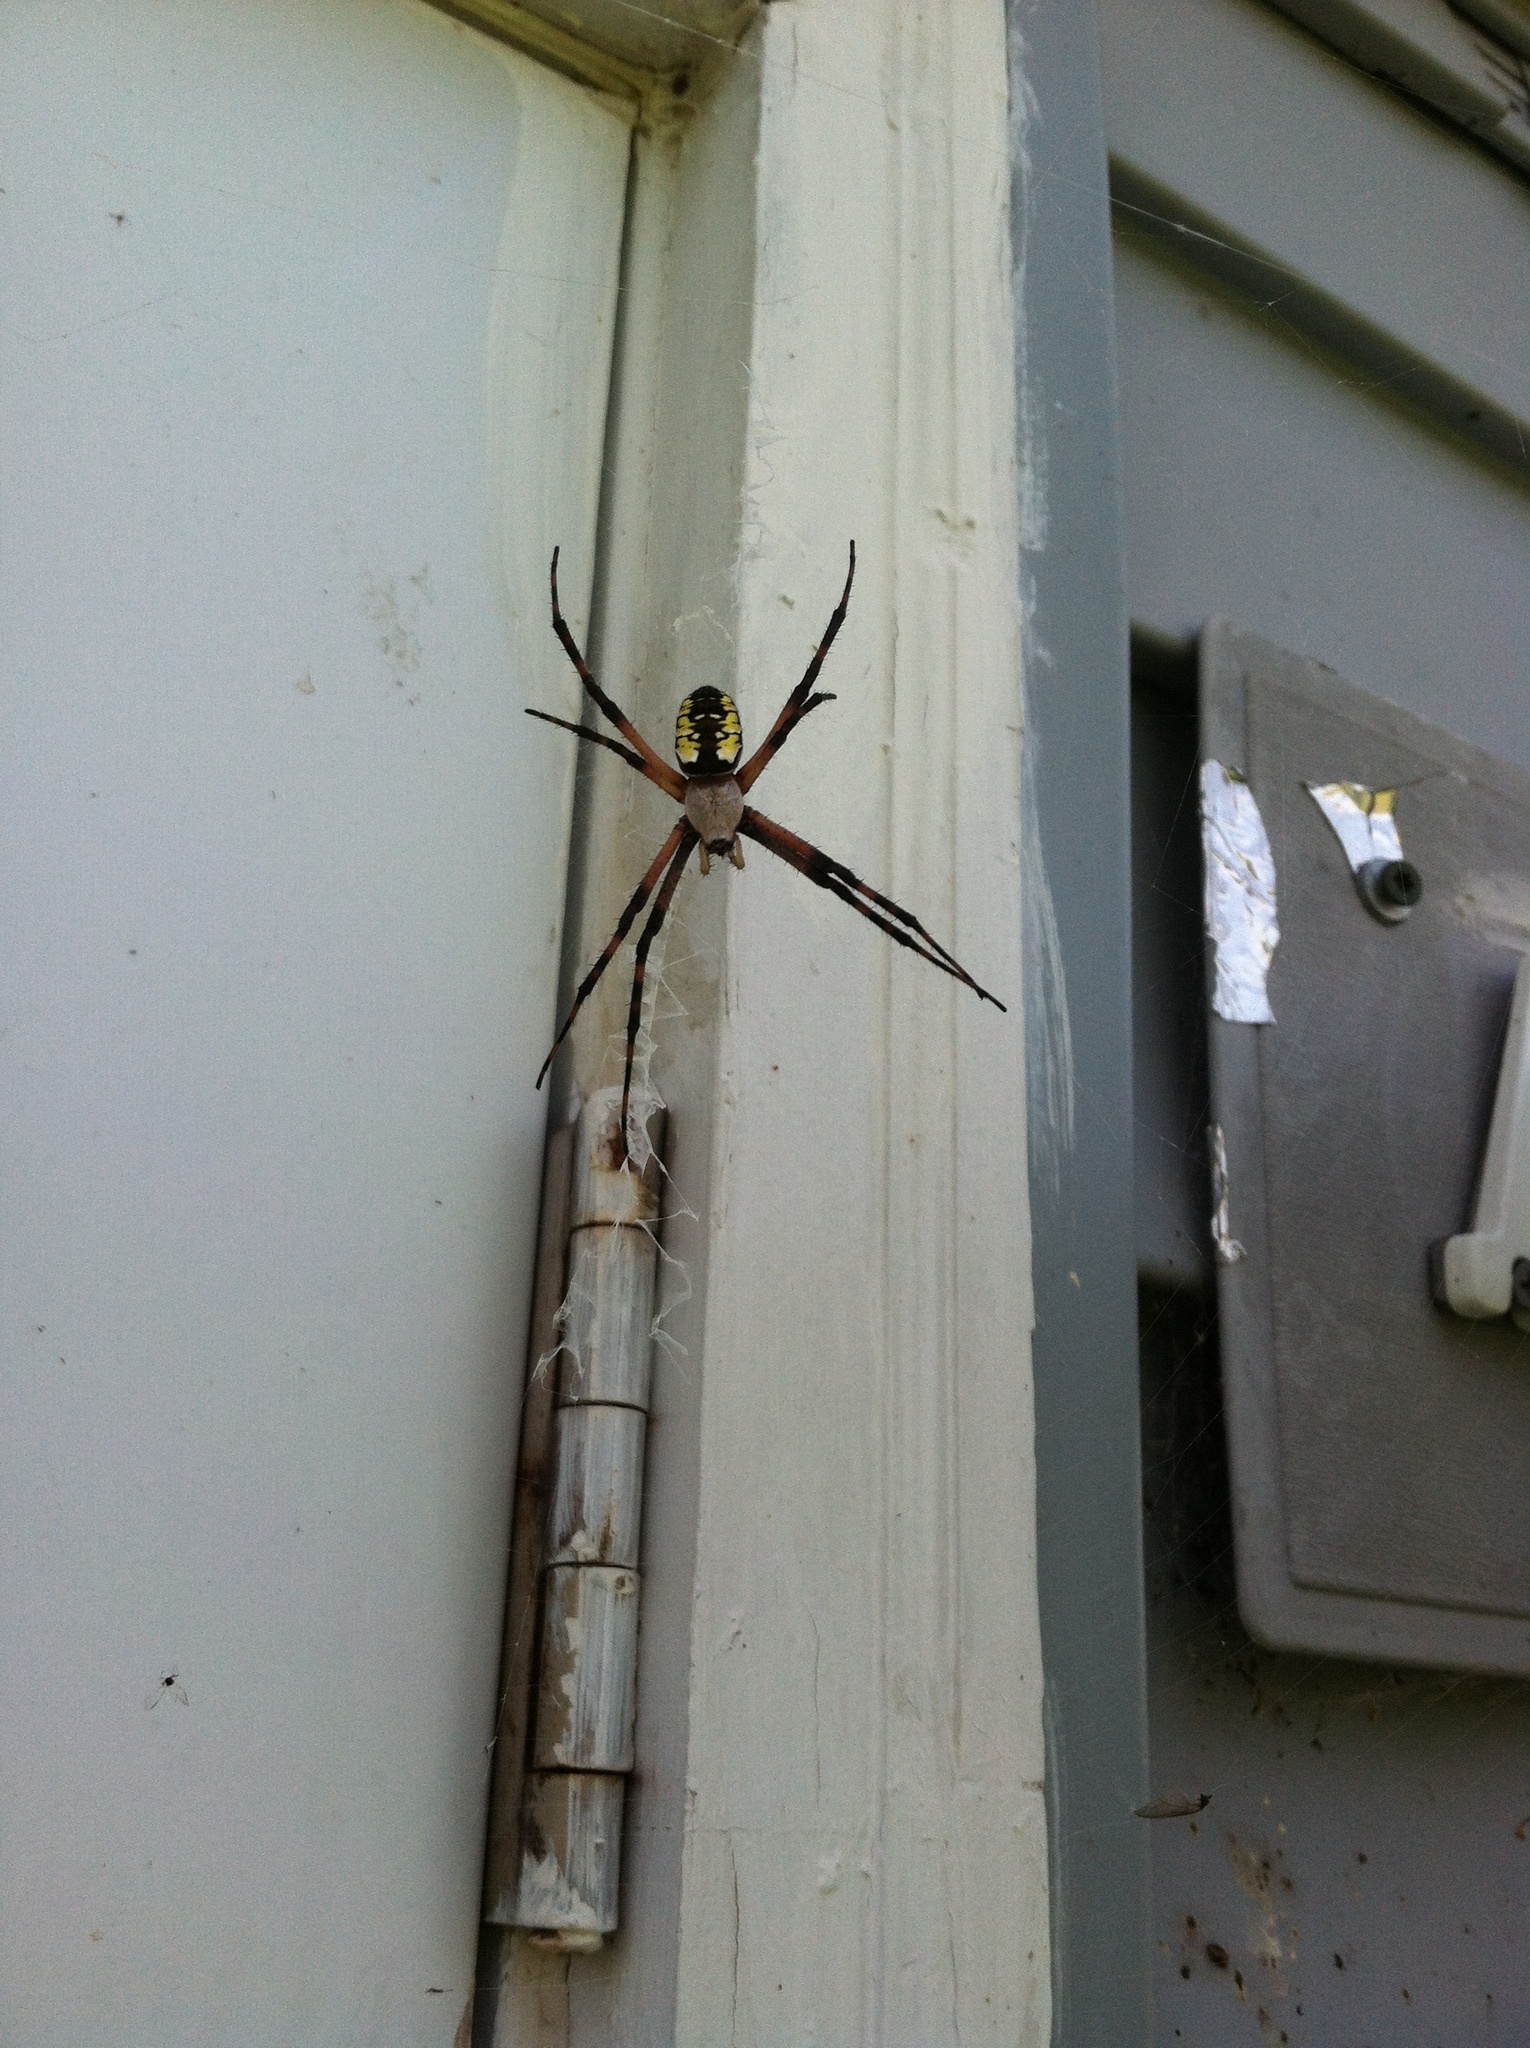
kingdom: Animalia
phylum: Arthropoda
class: Arachnida
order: Araneae
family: Araneidae
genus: Argiope
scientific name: Argiope aurantia
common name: Orb weavers
